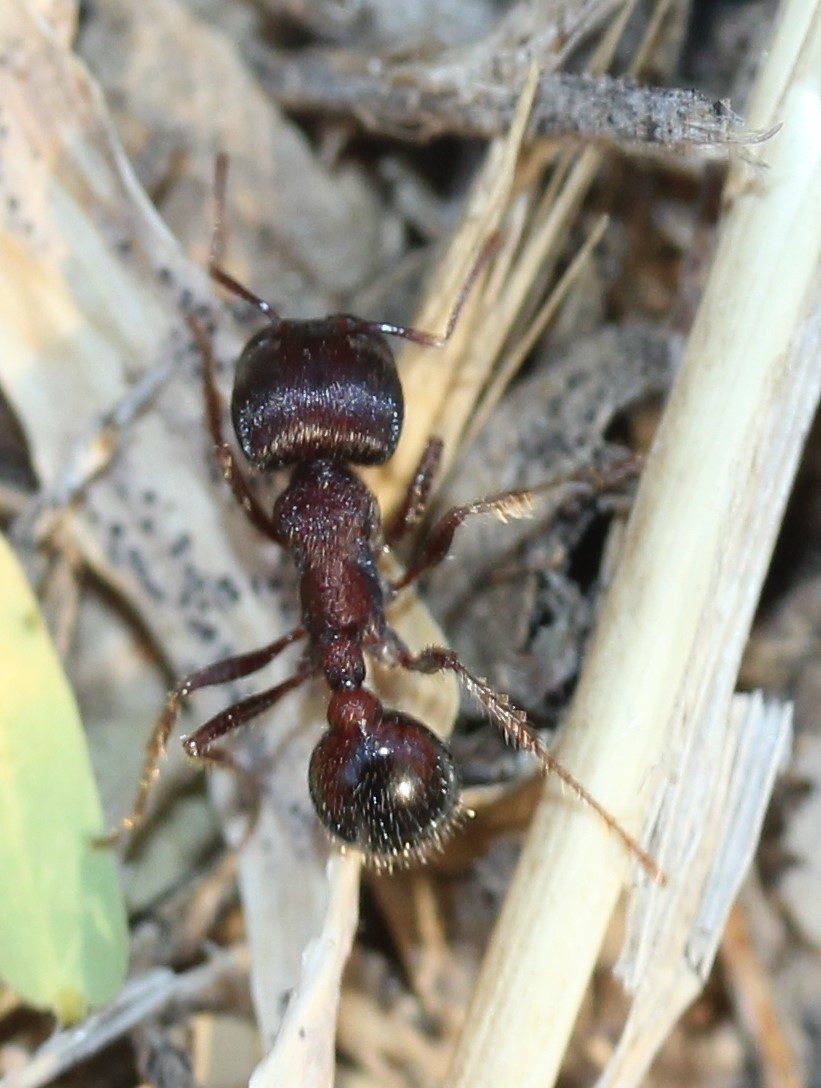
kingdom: Animalia
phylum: Arthropoda
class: Insecta
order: Hymenoptera
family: Formicidae
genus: Pogonomyrmex
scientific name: Pogonomyrmex rugosus
